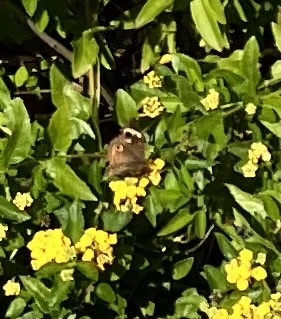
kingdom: Animalia
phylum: Arthropoda
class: Insecta
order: Lepidoptera
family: Nymphalidae
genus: Junonia
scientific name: Junonia coenia
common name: Common buckeye
